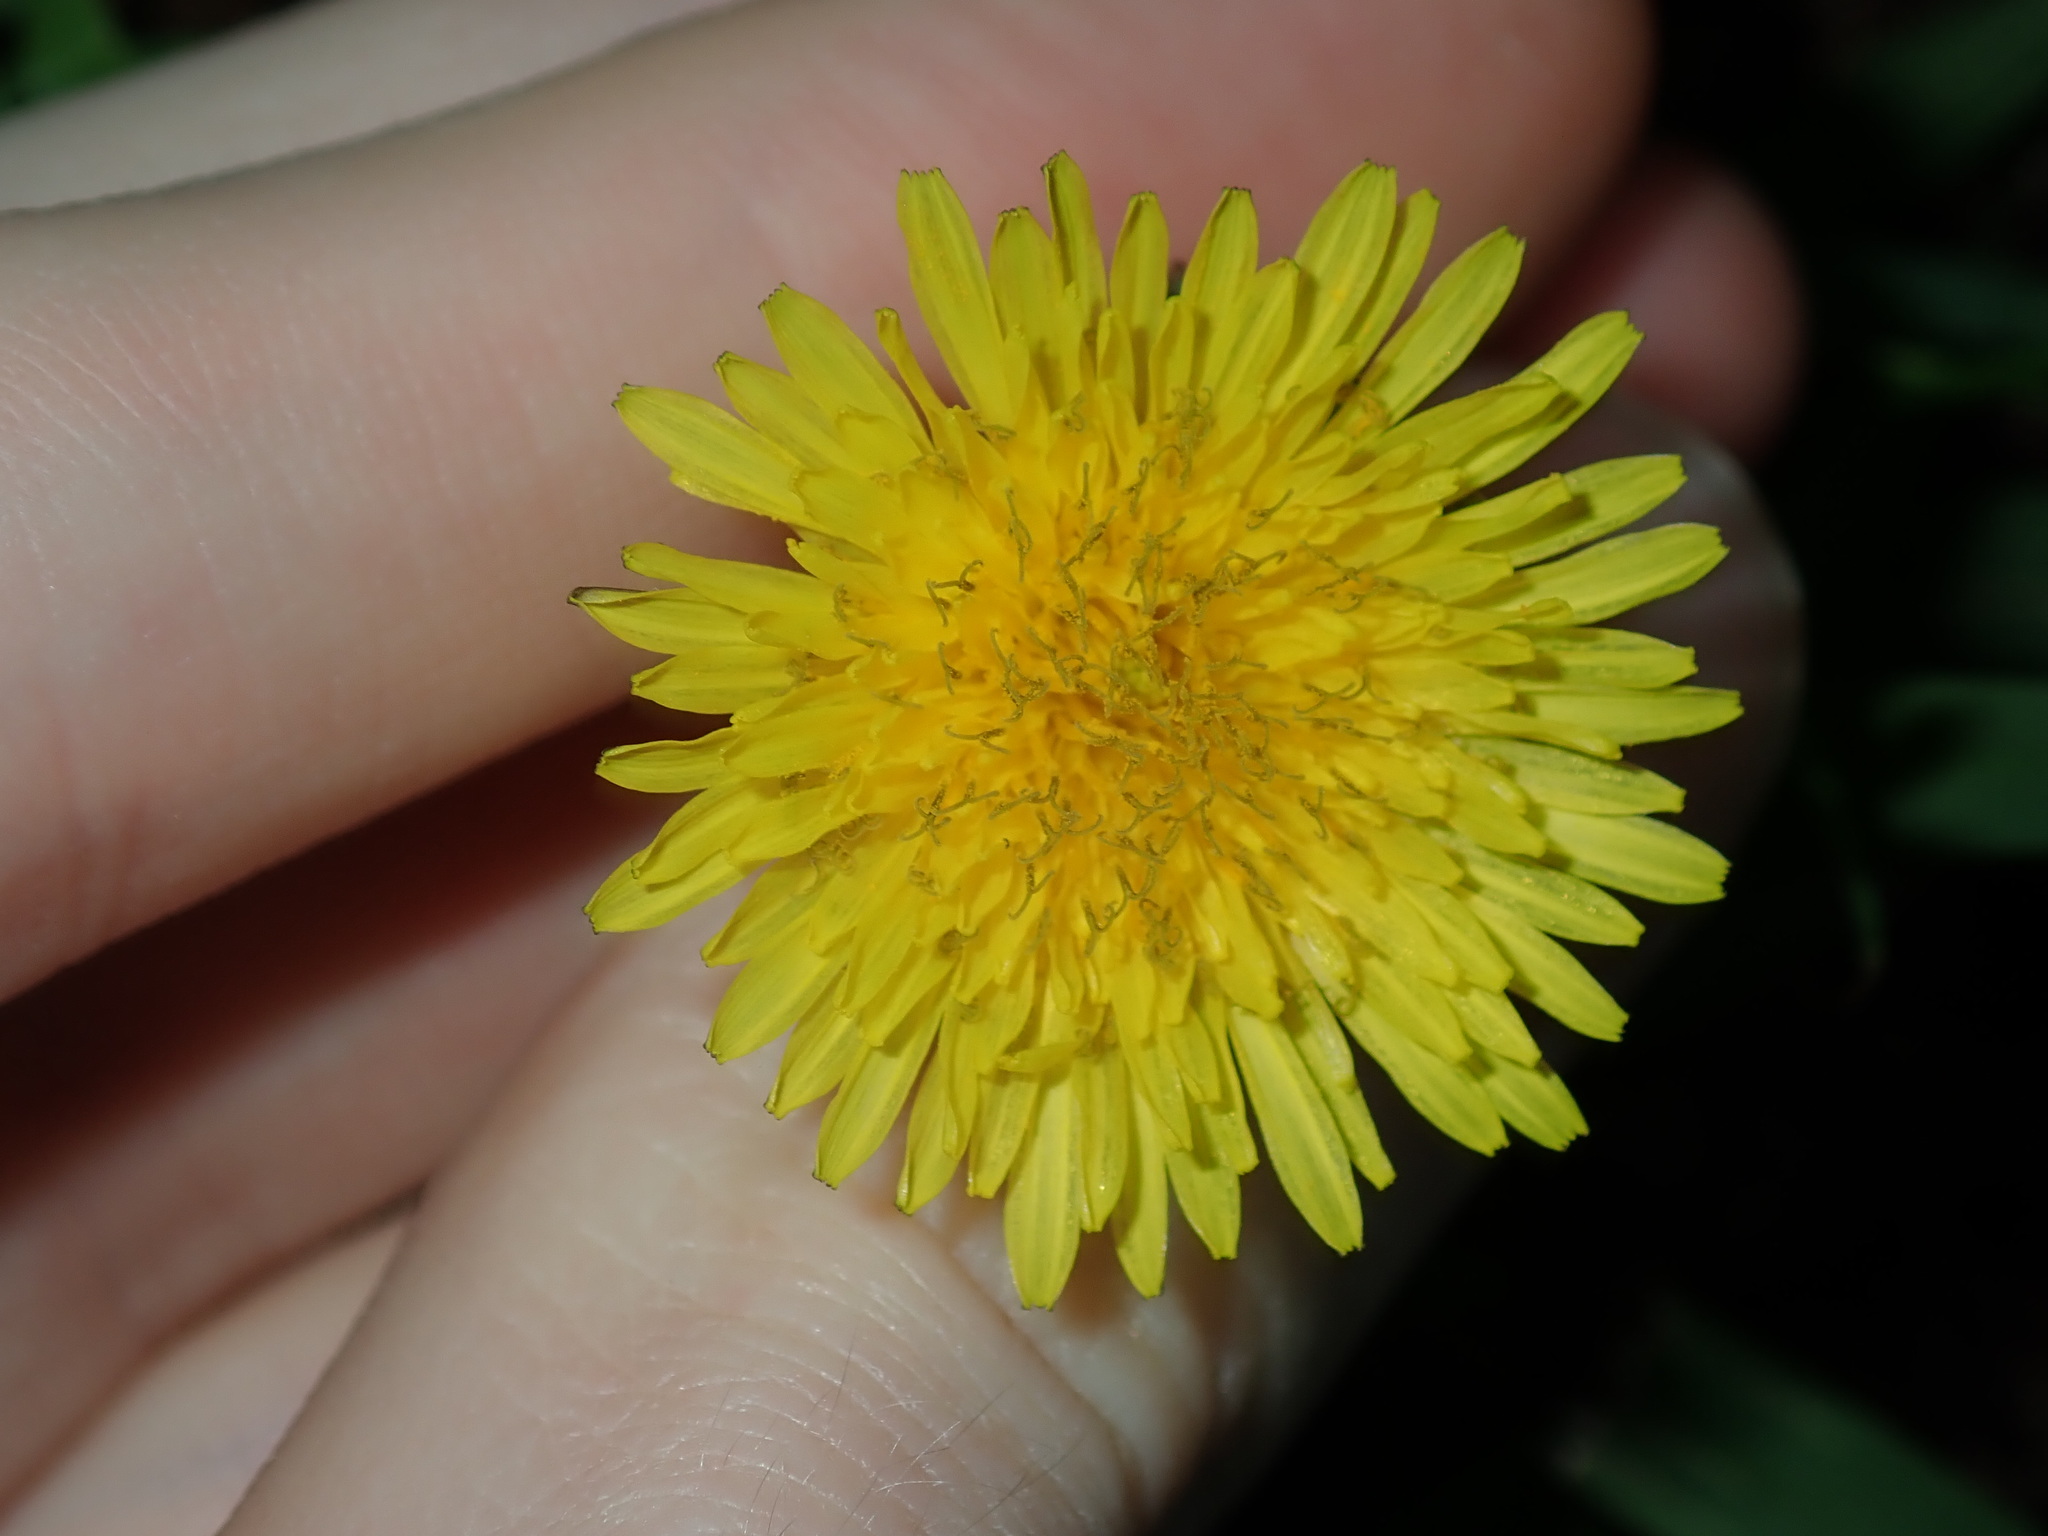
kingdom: Plantae
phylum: Tracheophyta
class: Magnoliopsida
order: Asterales
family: Asteraceae
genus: Taraxacum
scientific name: Taraxacum officinale
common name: Common dandelion
